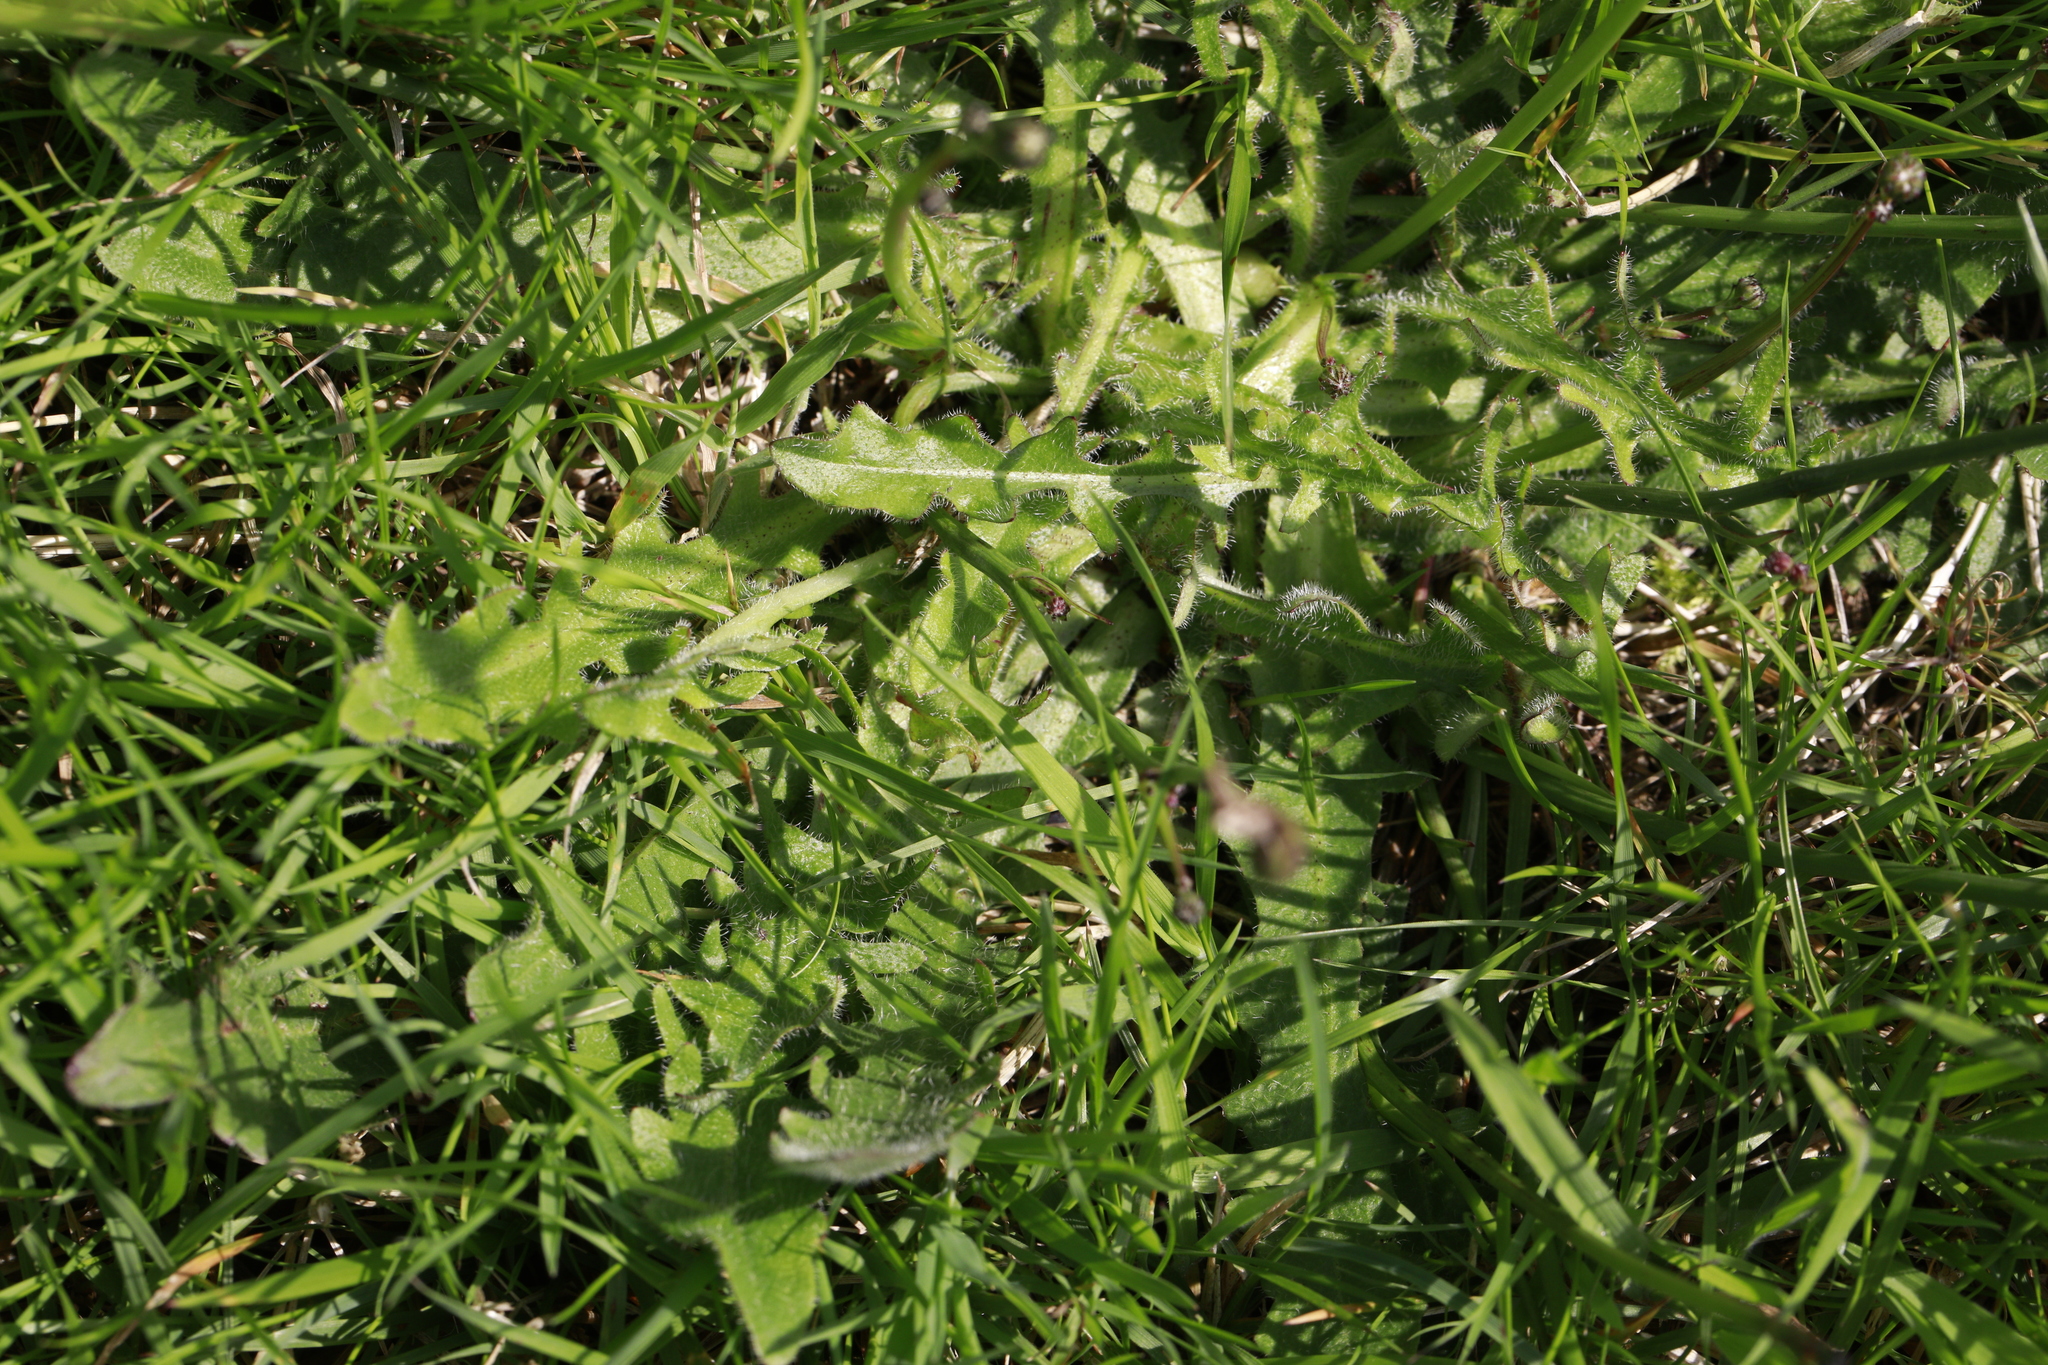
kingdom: Plantae
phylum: Tracheophyta
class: Magnoliopsida
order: Asterales
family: Asteraceae
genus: Hypochaeris
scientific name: Hypochaeris radicata
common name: Flatweed
